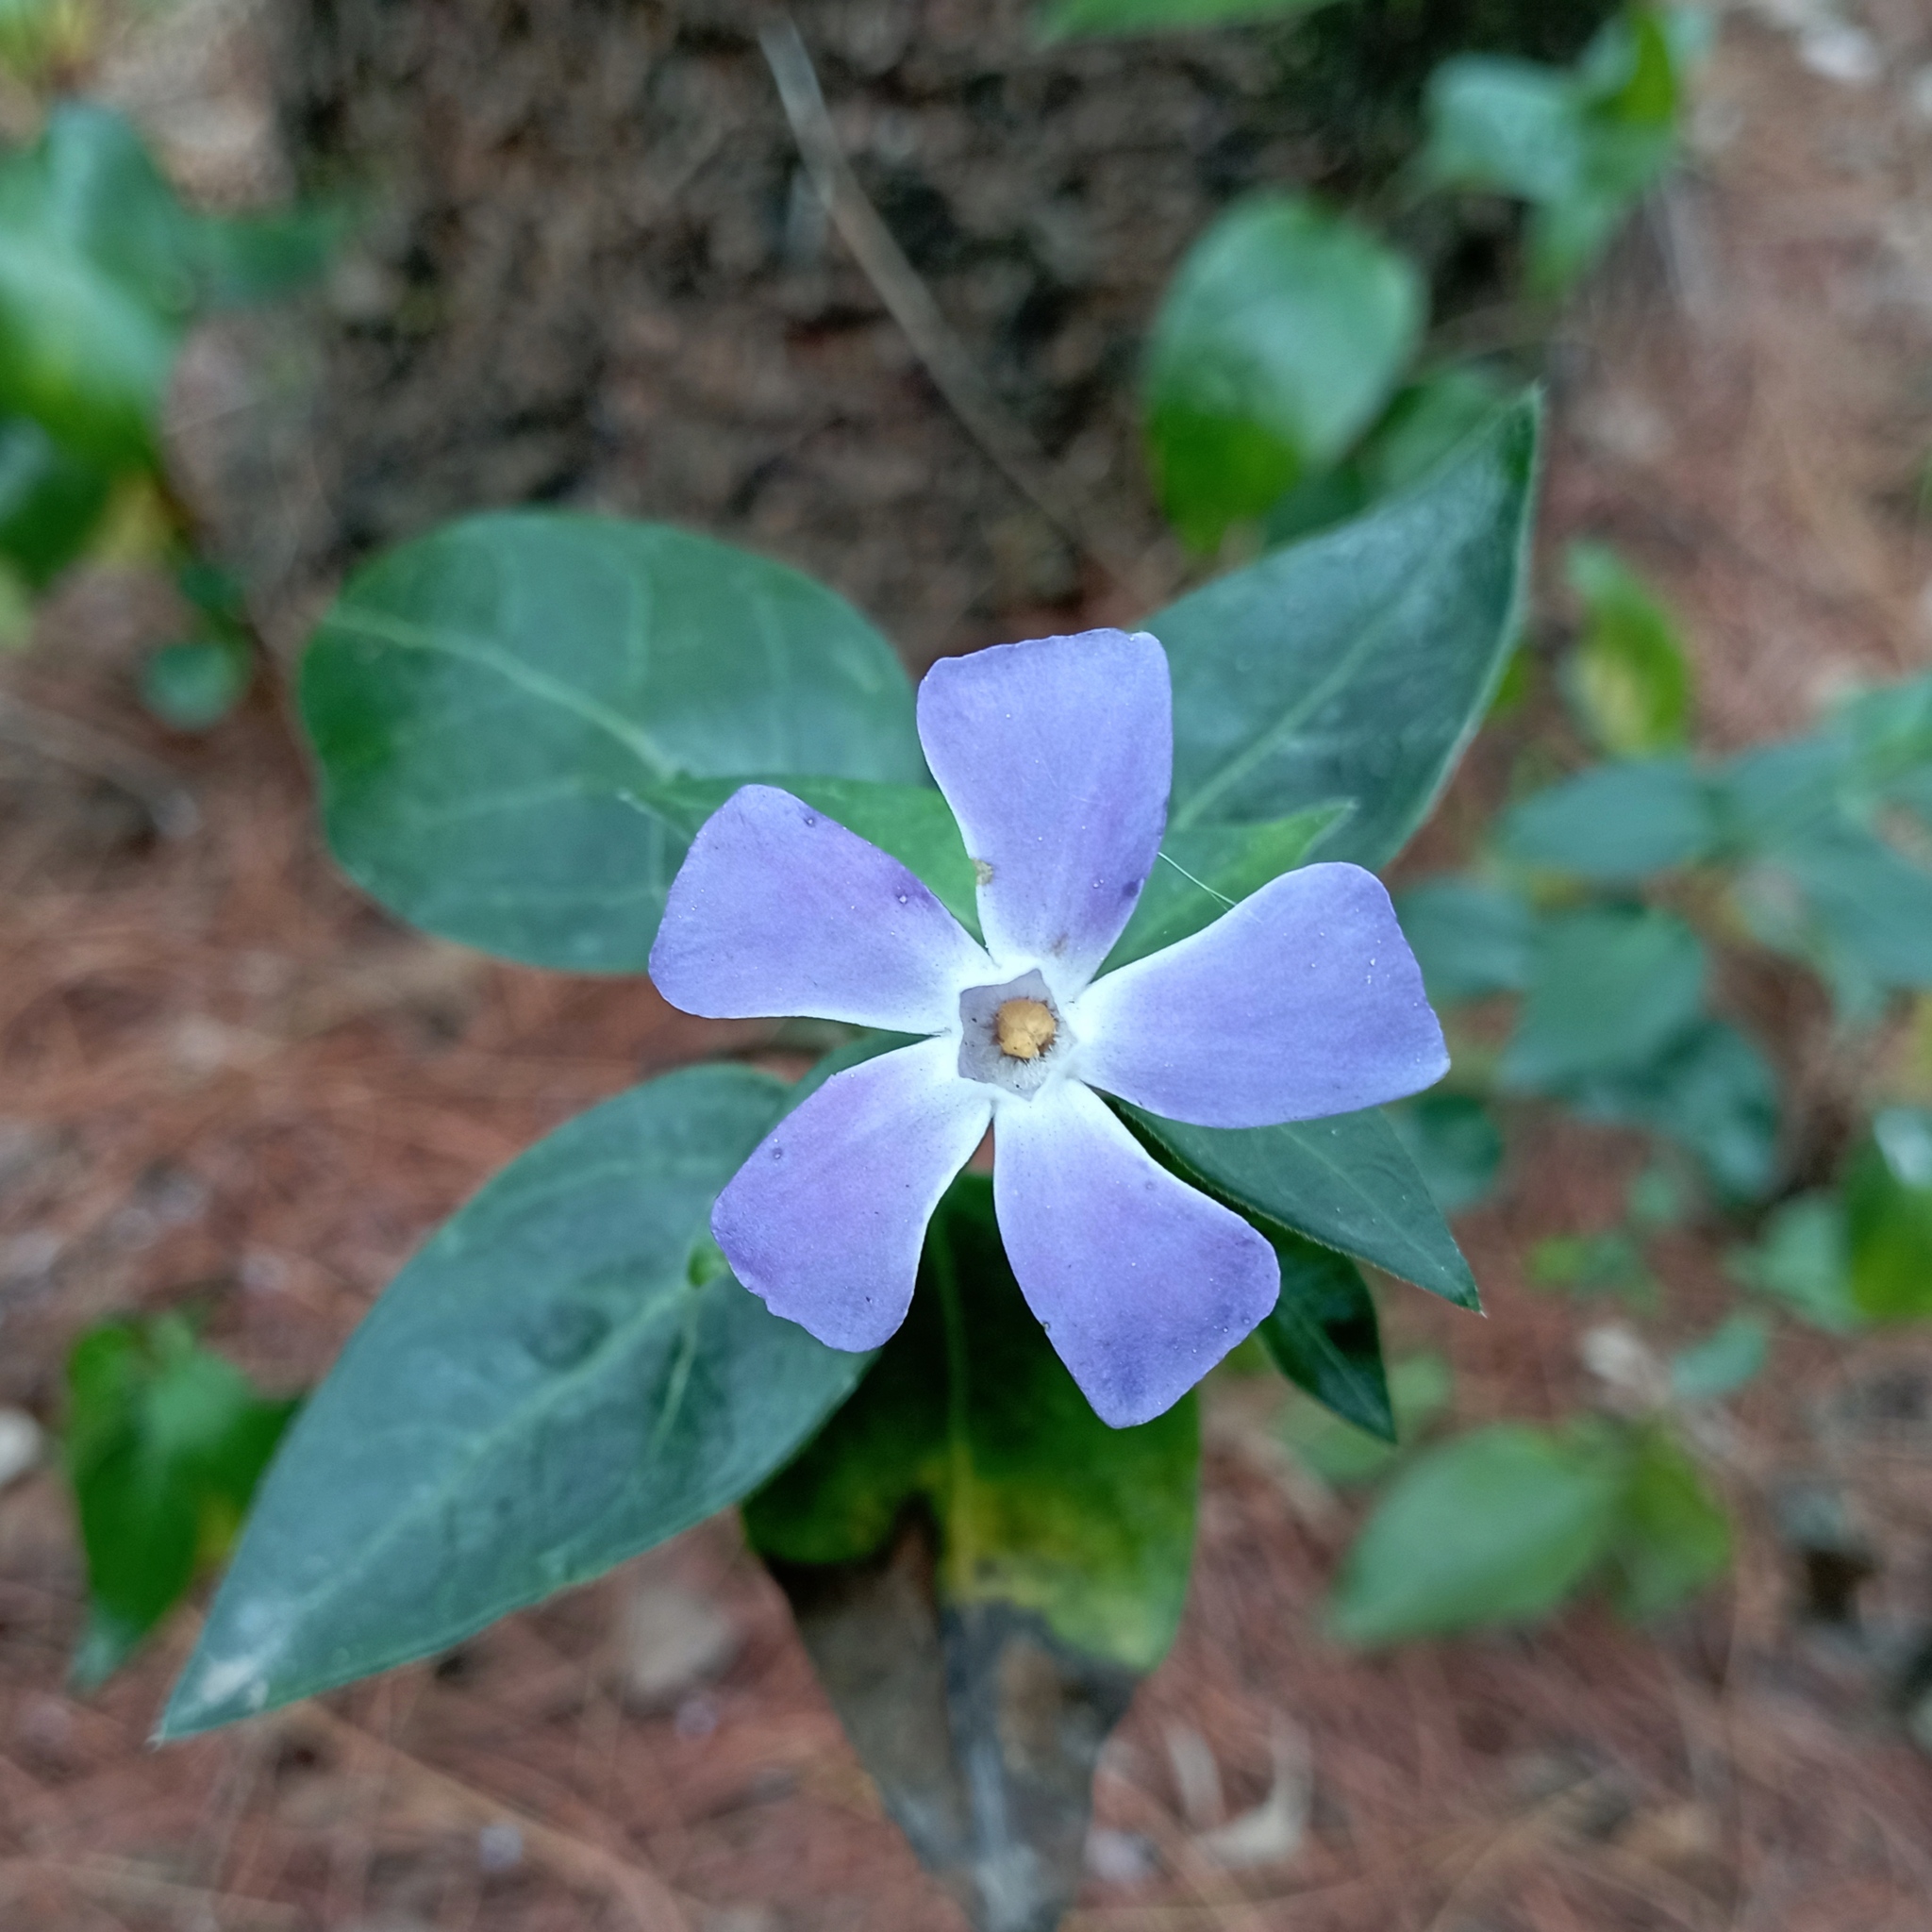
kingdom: Plantae
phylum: Tracheophyta
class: Magnoliopsida
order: Gentianales
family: Apocynaceae
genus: Vinca
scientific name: Vinca major
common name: Greater periwinkle
